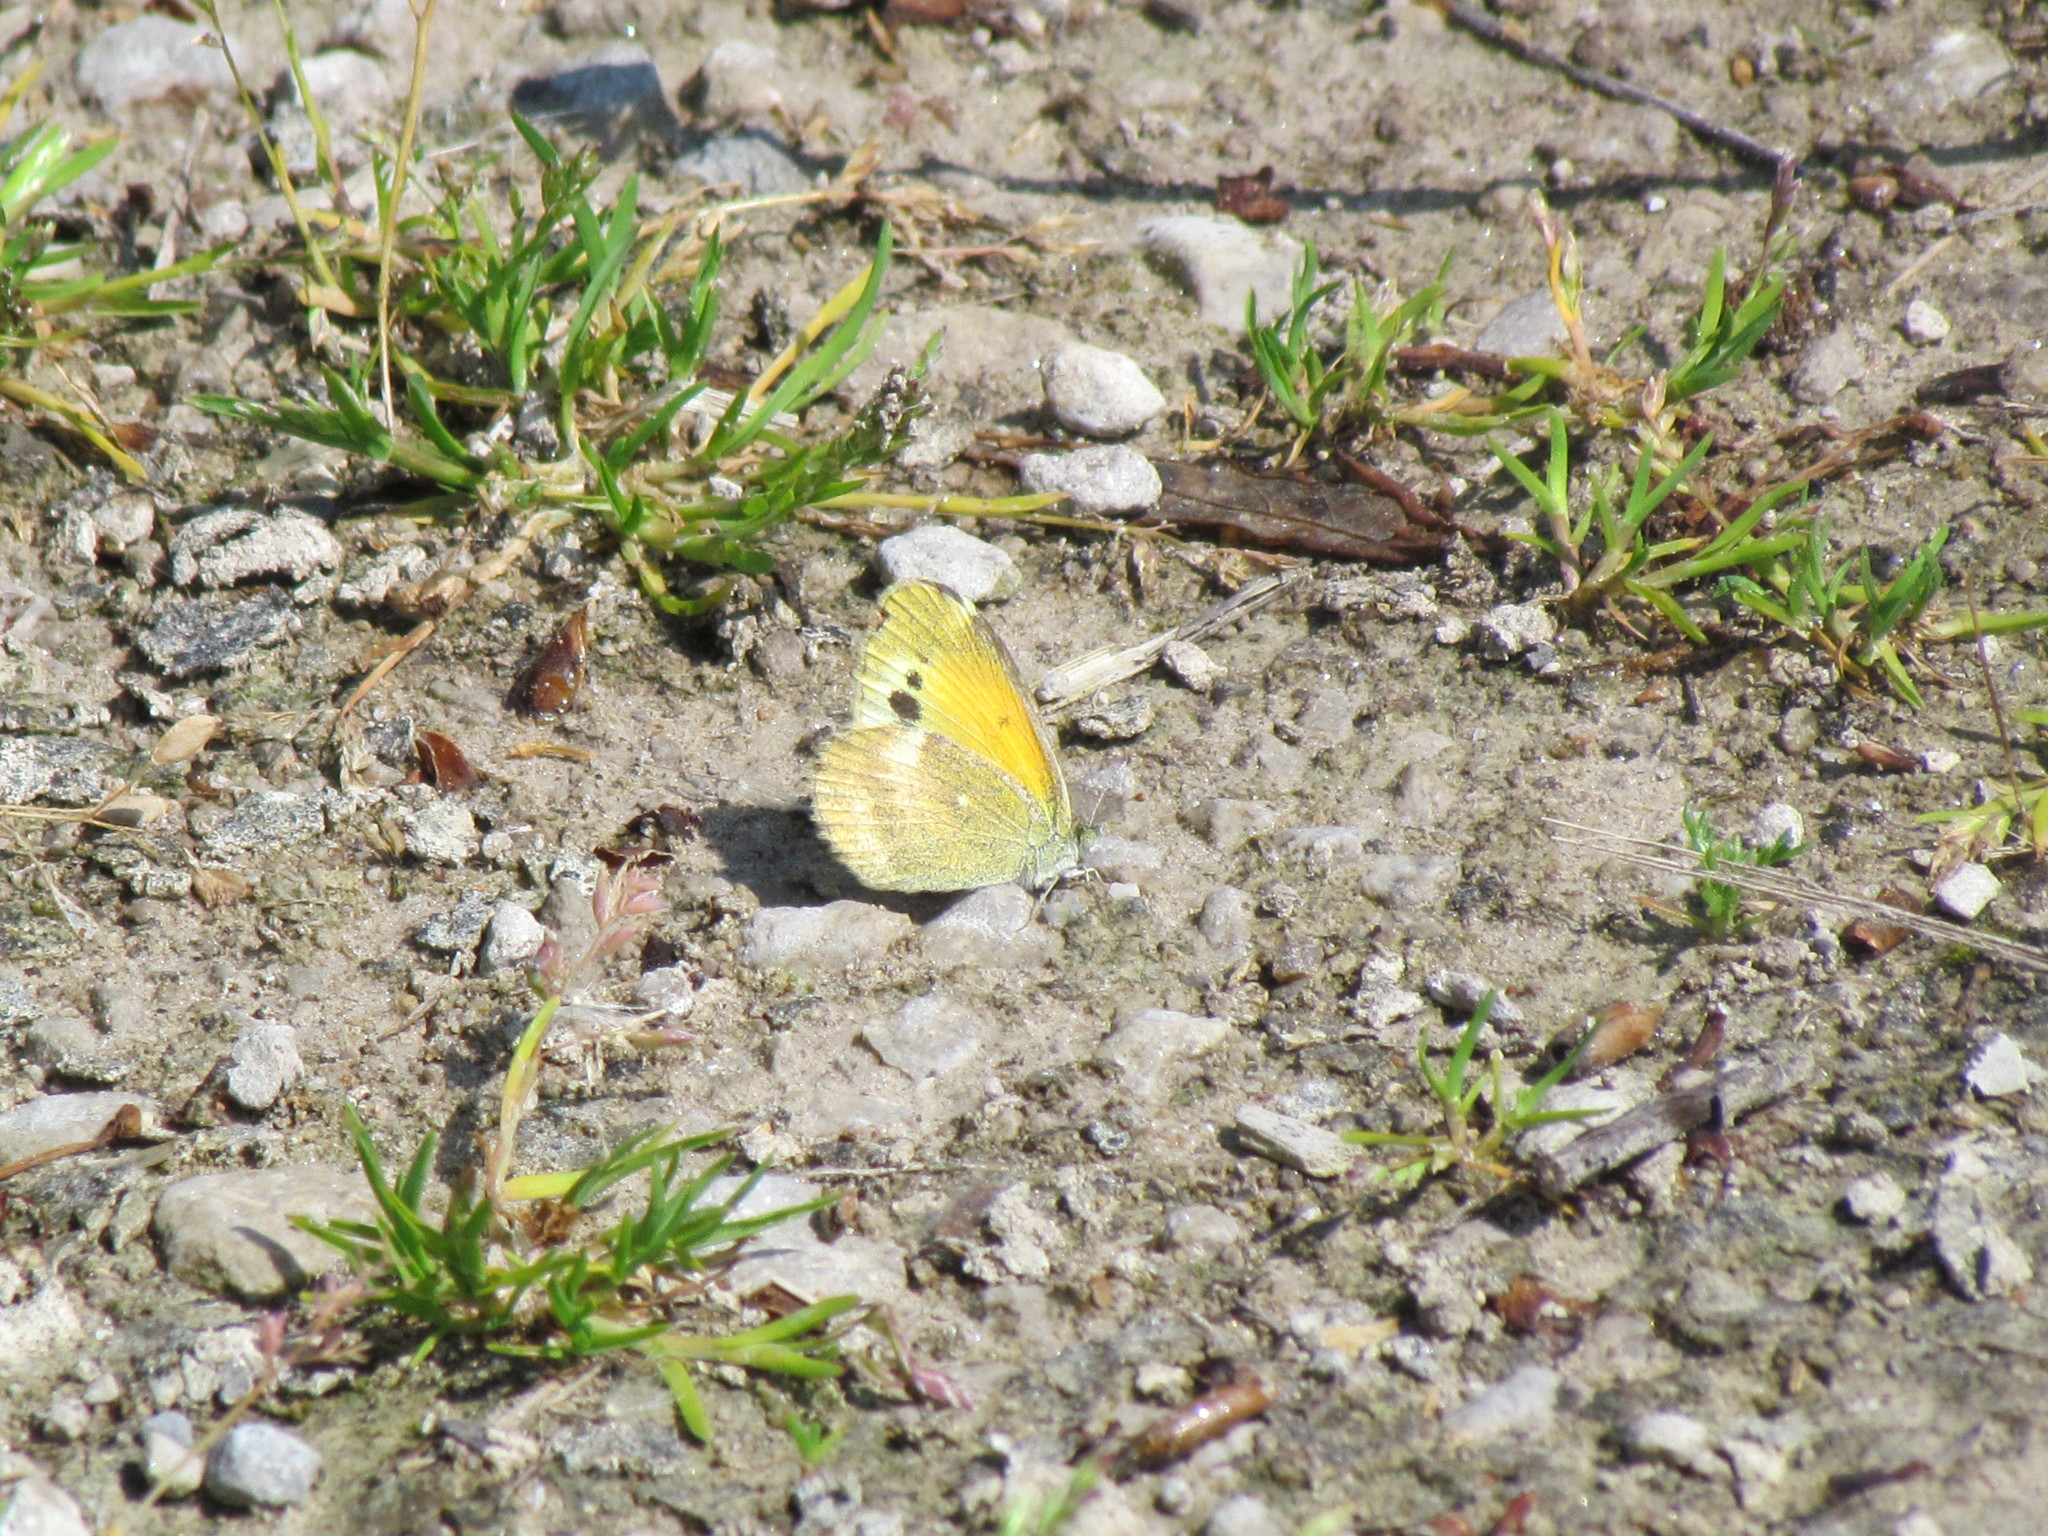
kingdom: Animalia
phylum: Arthropoda
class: Insecta
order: Lepidoptera
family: Pieridae
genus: Nathalis
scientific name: Nathalis iole
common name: Dainty sulphur
